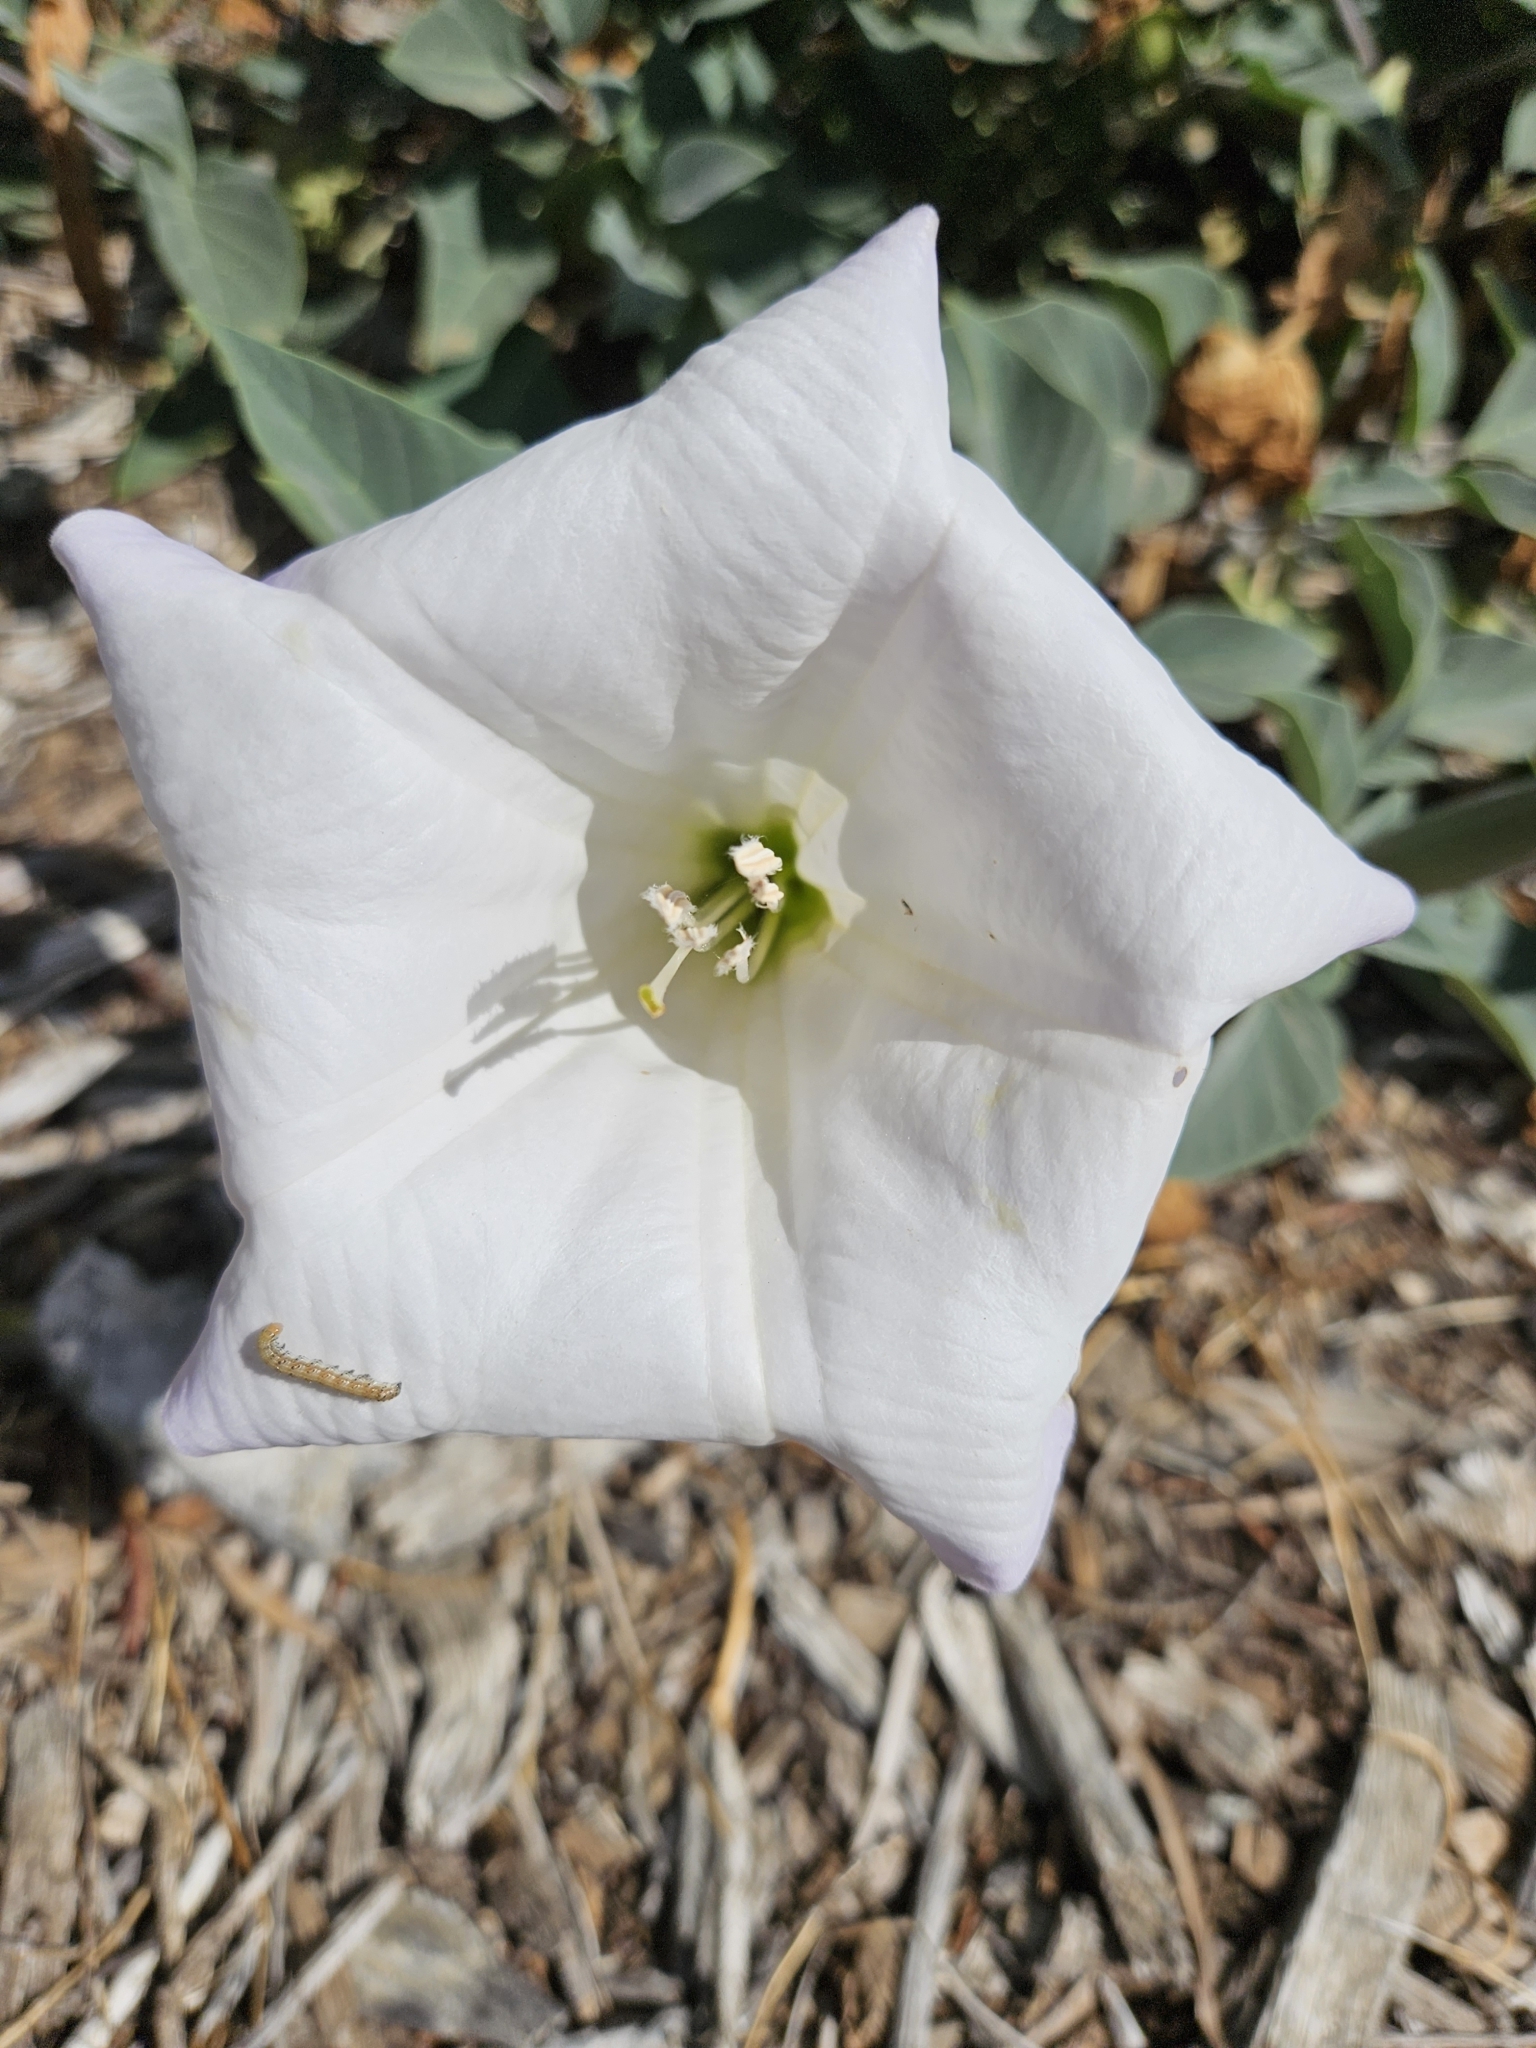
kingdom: Plantae
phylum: Tracheophyta
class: Magnoliopsida
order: Solanales
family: Solanaceae
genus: Datura
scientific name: Datura wrightii
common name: Sacred thorn-apple
